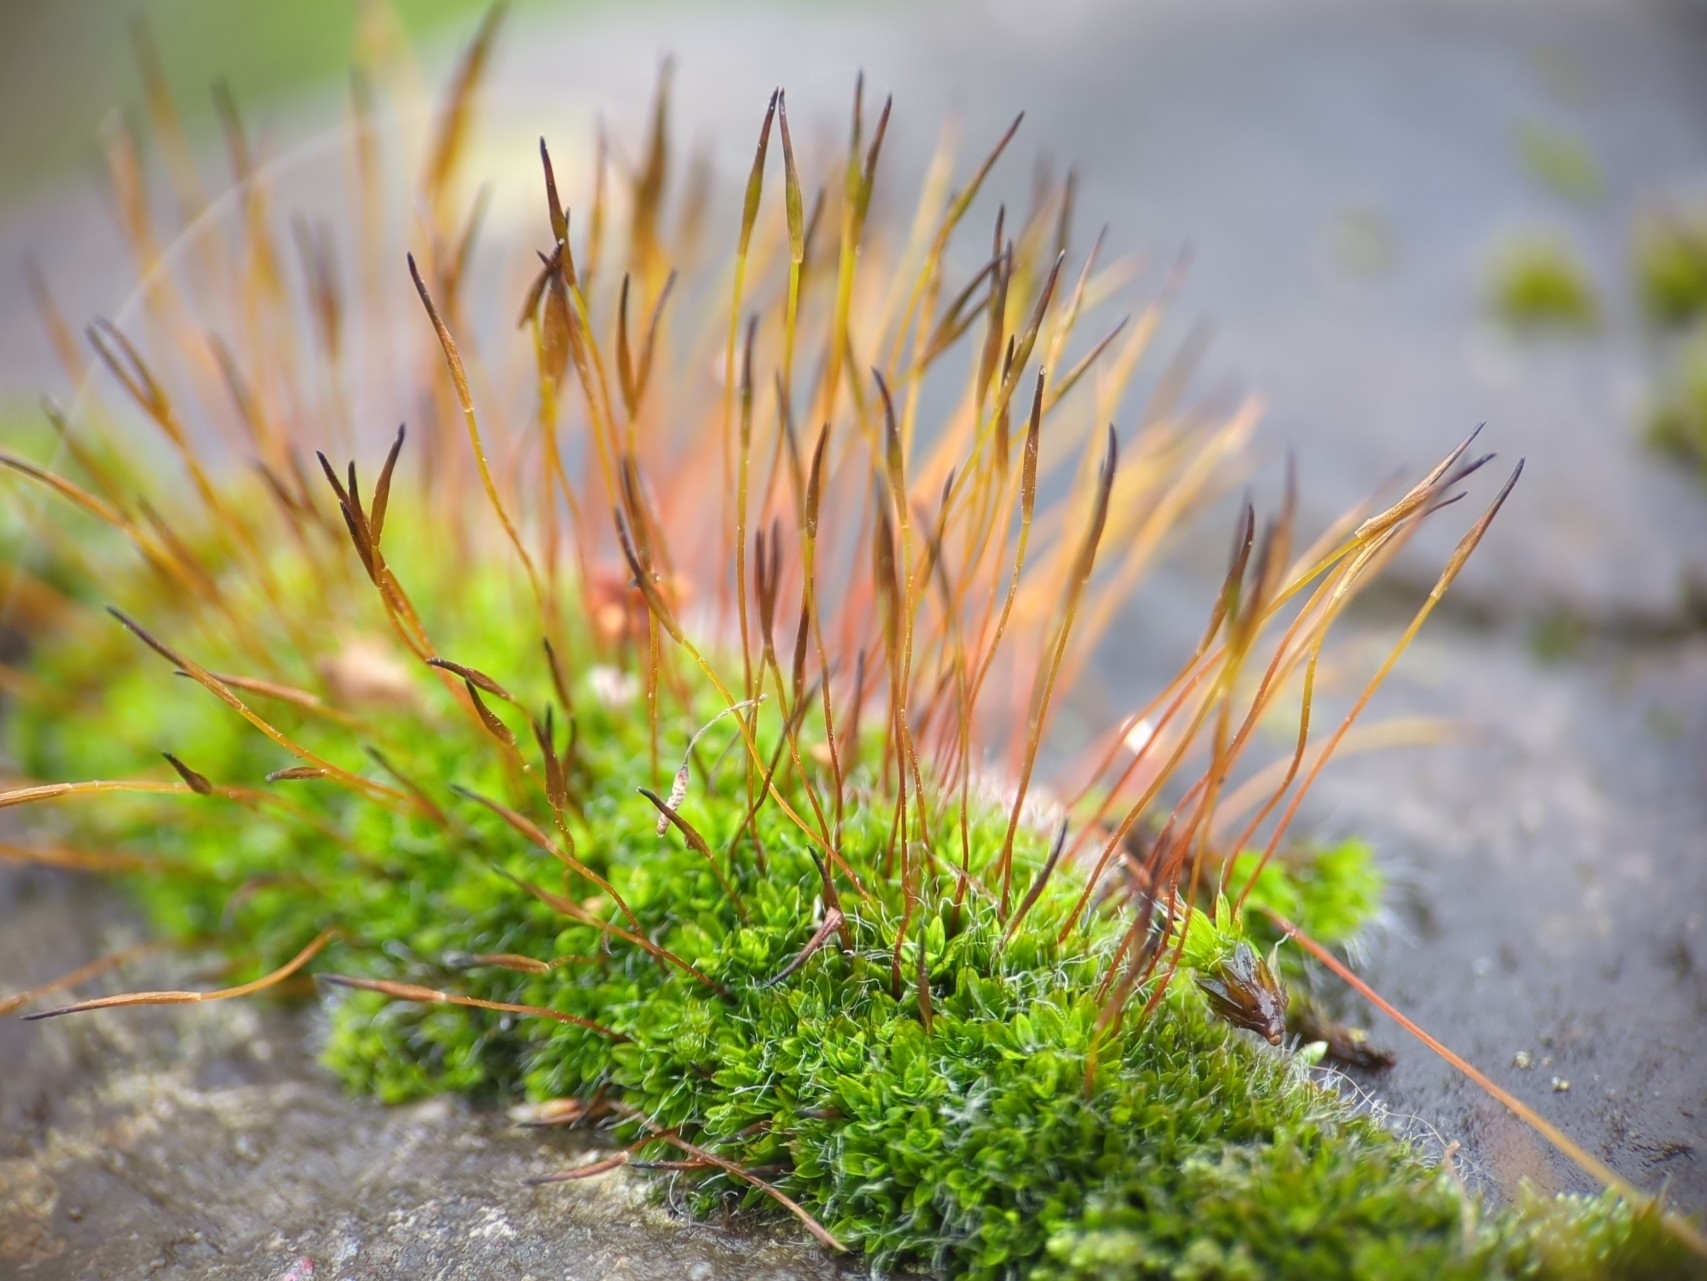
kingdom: Plantae
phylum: Bryophyta
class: Bryopsida
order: Pottiales
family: Pottiaceae
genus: Tortula
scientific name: Tortula muralis
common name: Wall screw-moss
